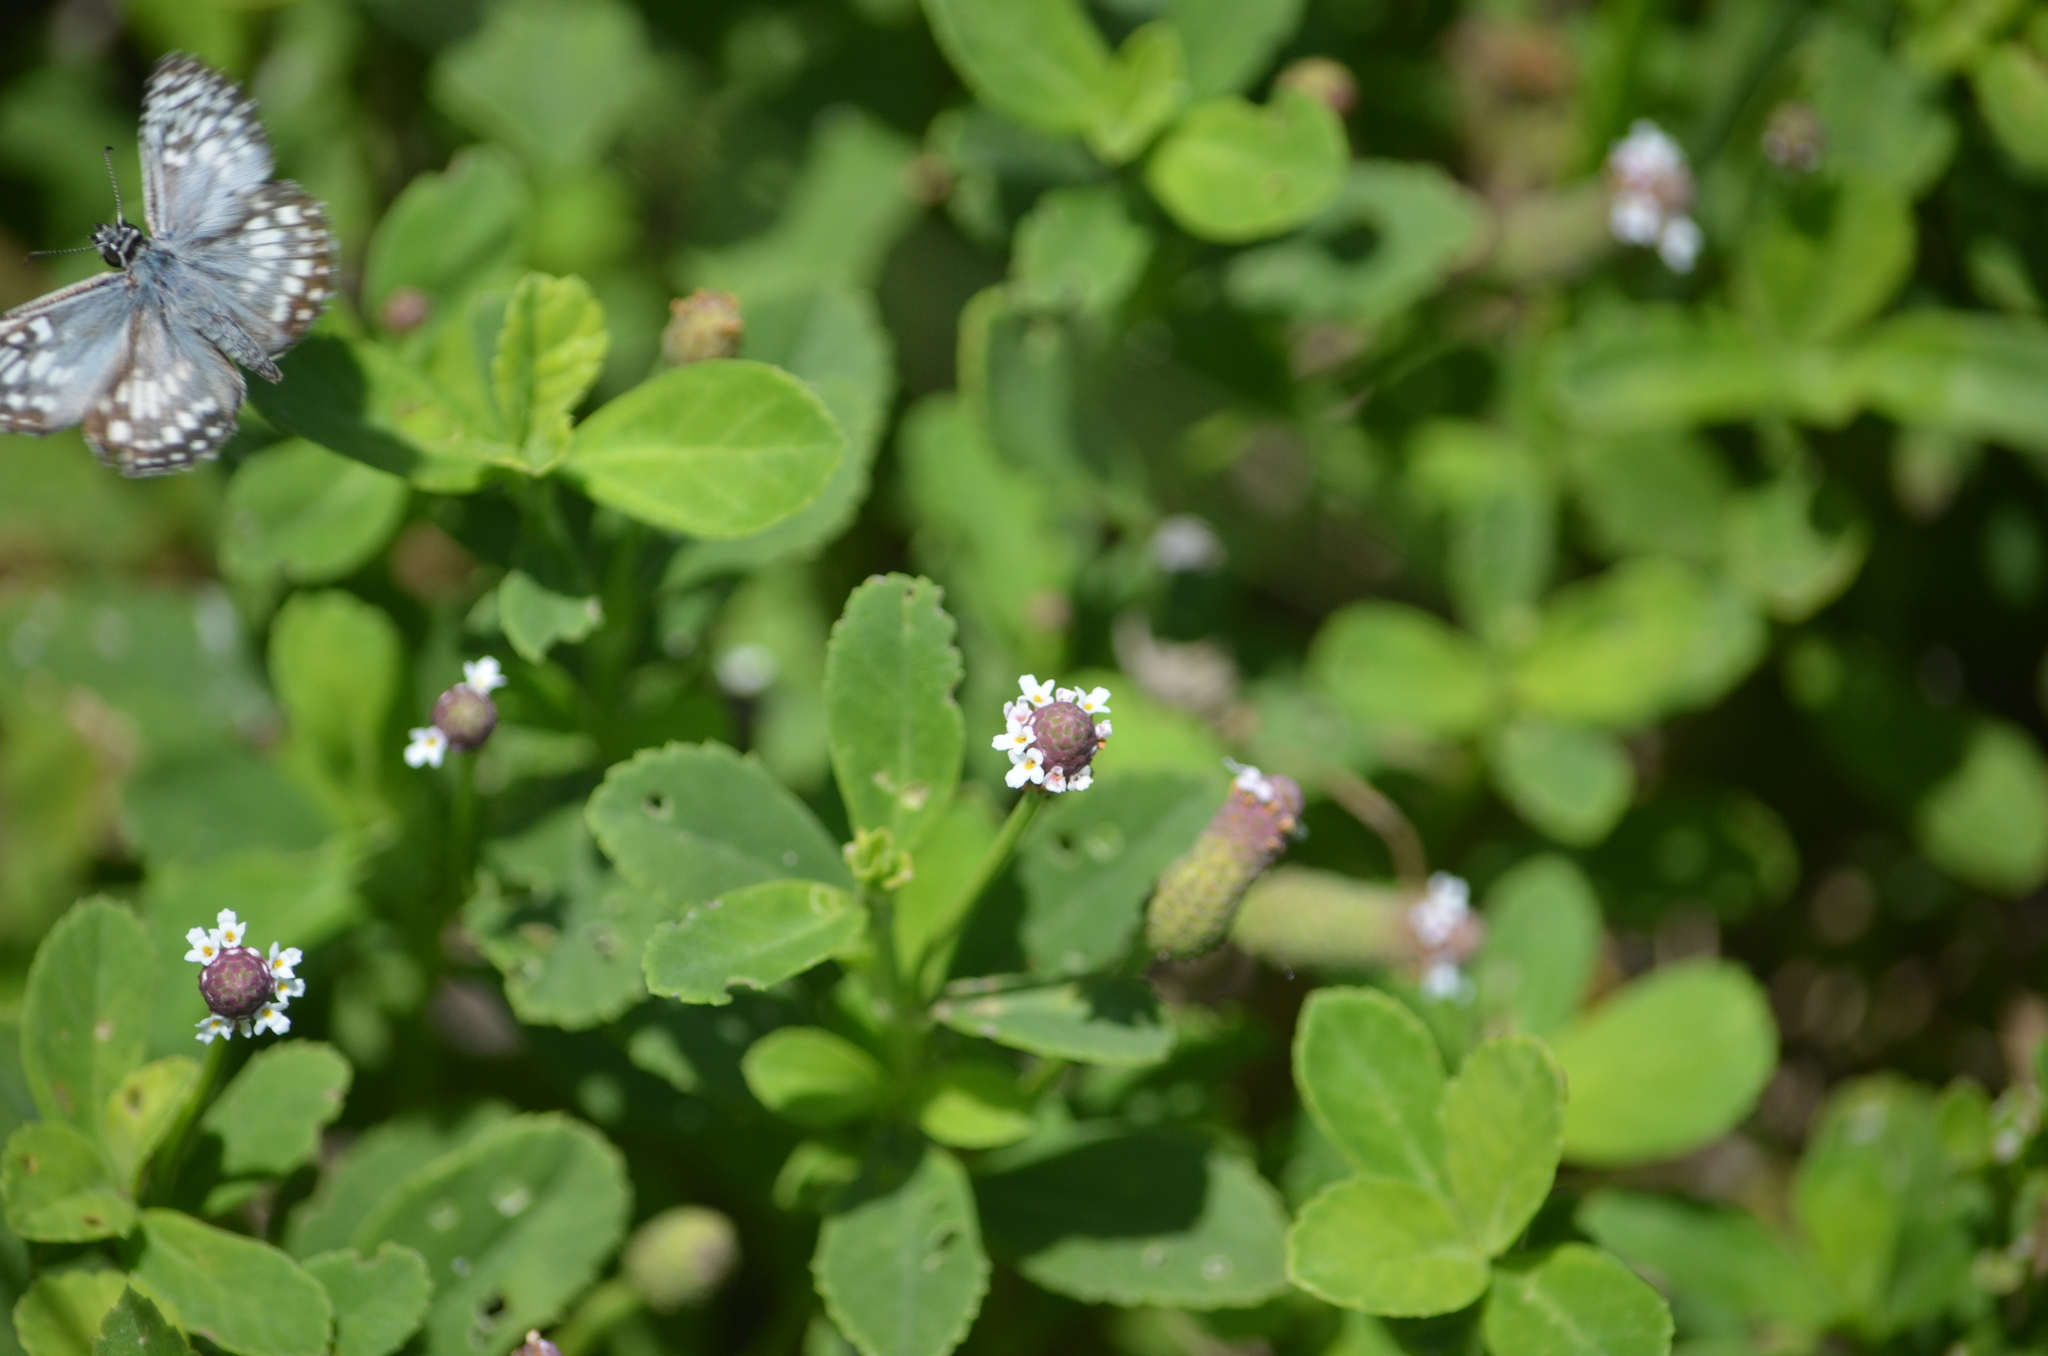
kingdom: Animalia
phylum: Arthropoda
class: Insecta
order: Lepidoptera
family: Hesperiidae
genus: Pyrgus
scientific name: Pyrgus oileus
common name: Tropical checkered-skipper
